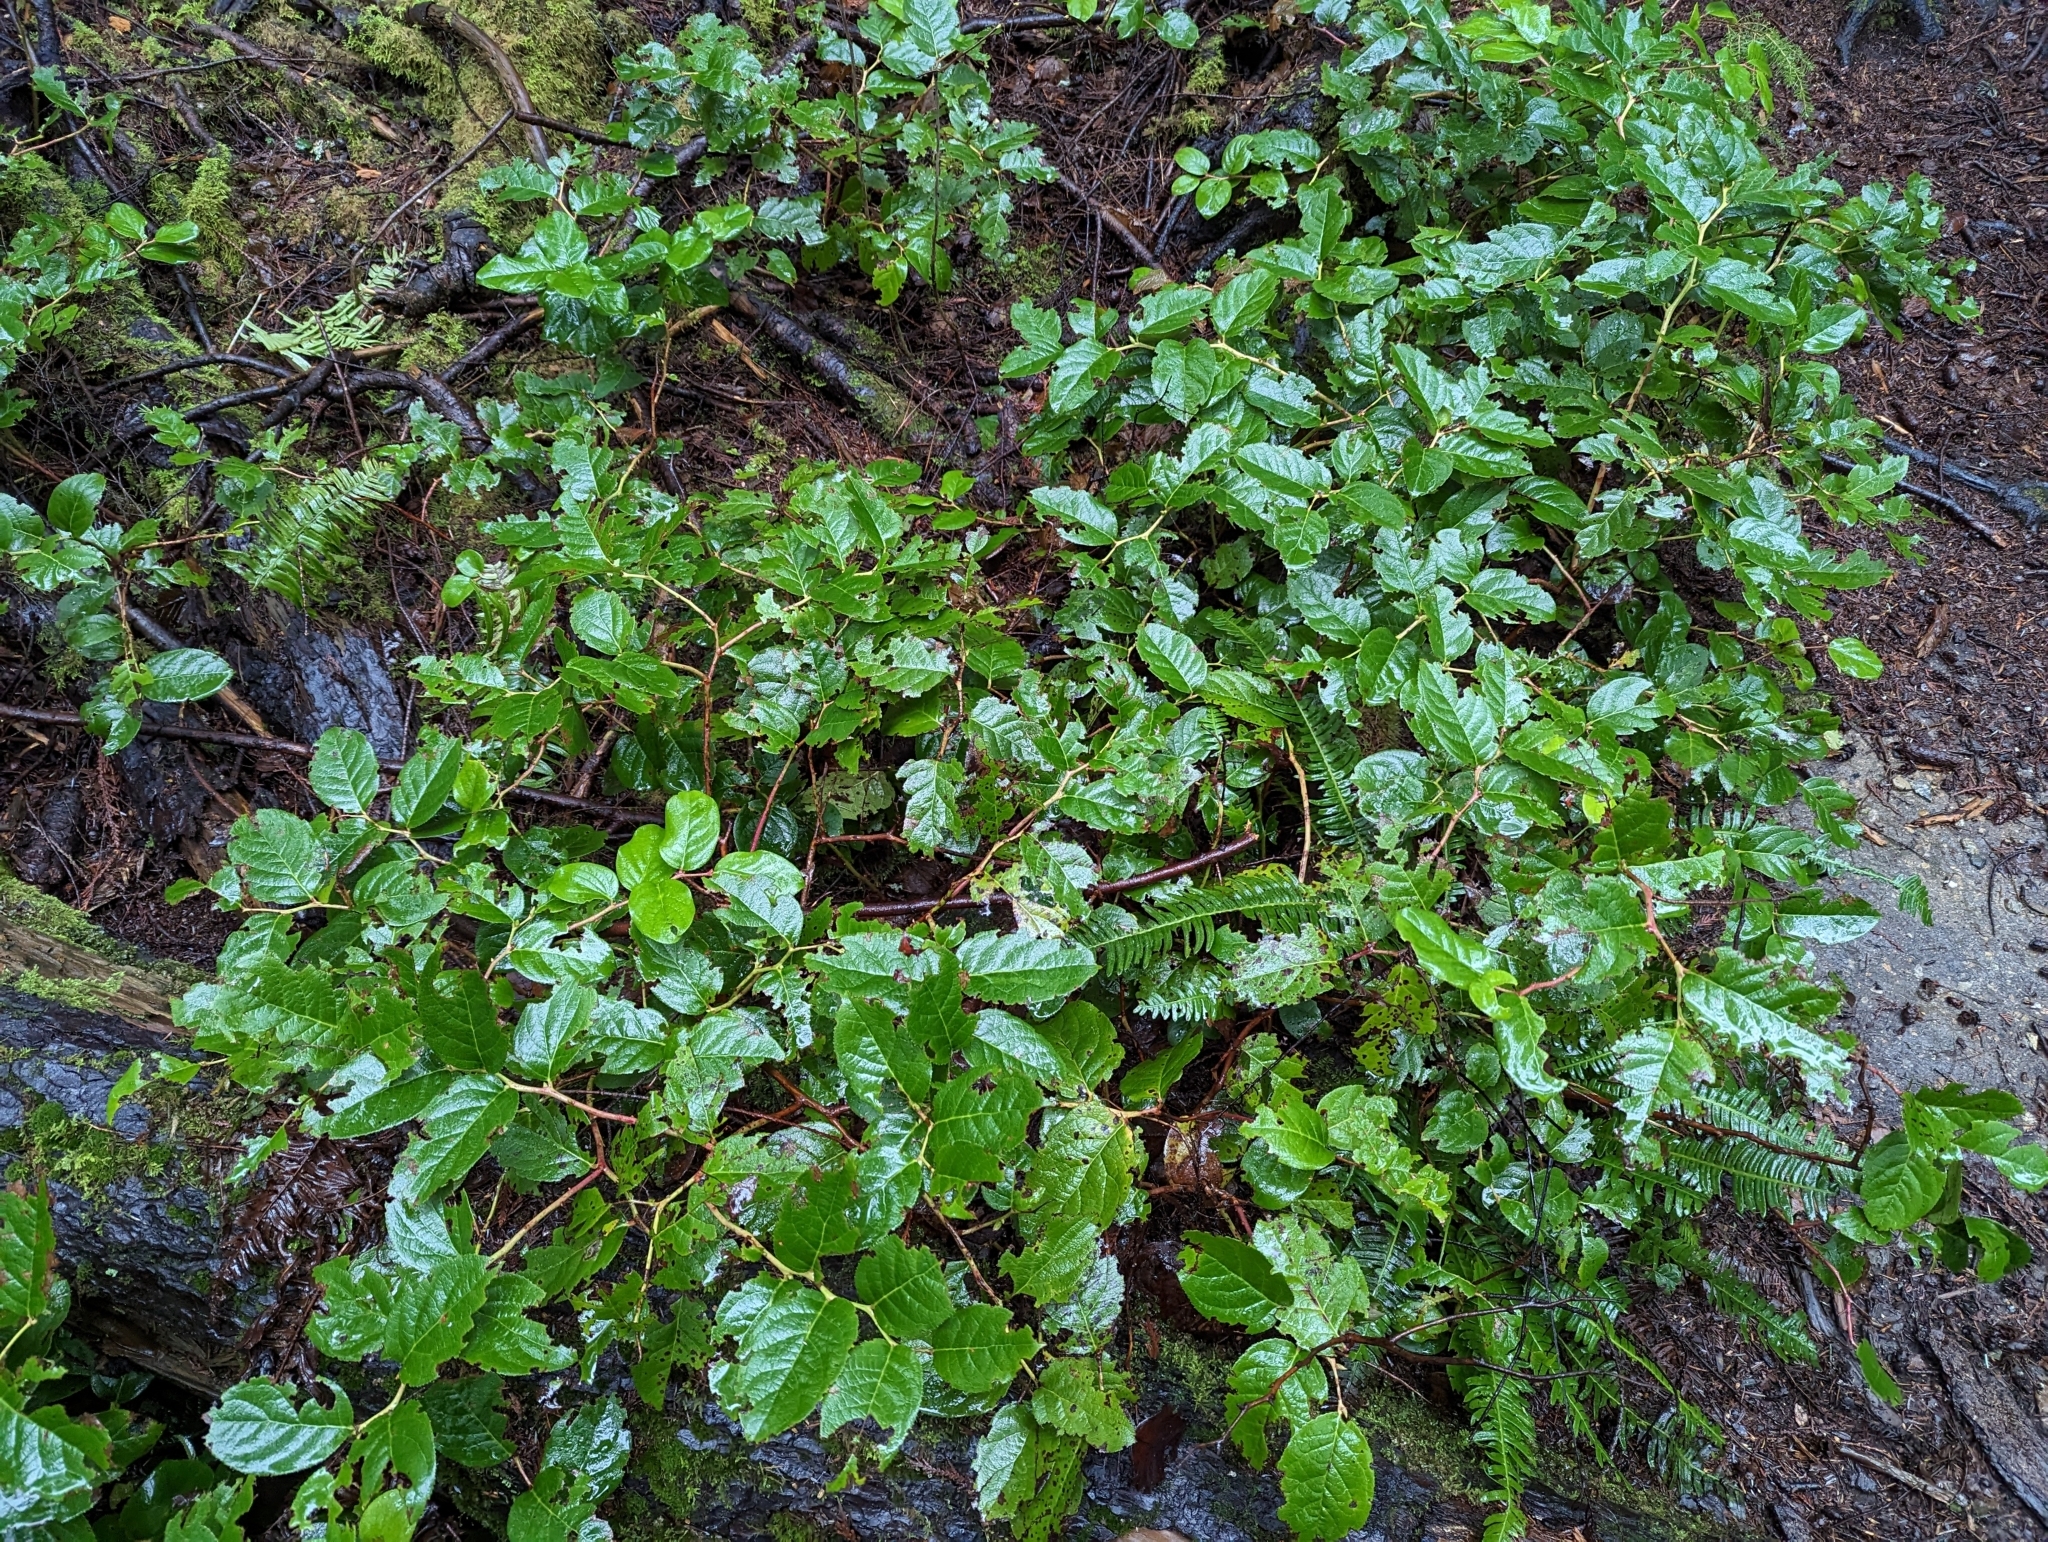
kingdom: Plantae
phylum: Tracheophyta
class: Magnoliopsida
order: Ericales
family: Ericaceae
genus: Gaultheria
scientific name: Gaultheria shallon
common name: Shallon
